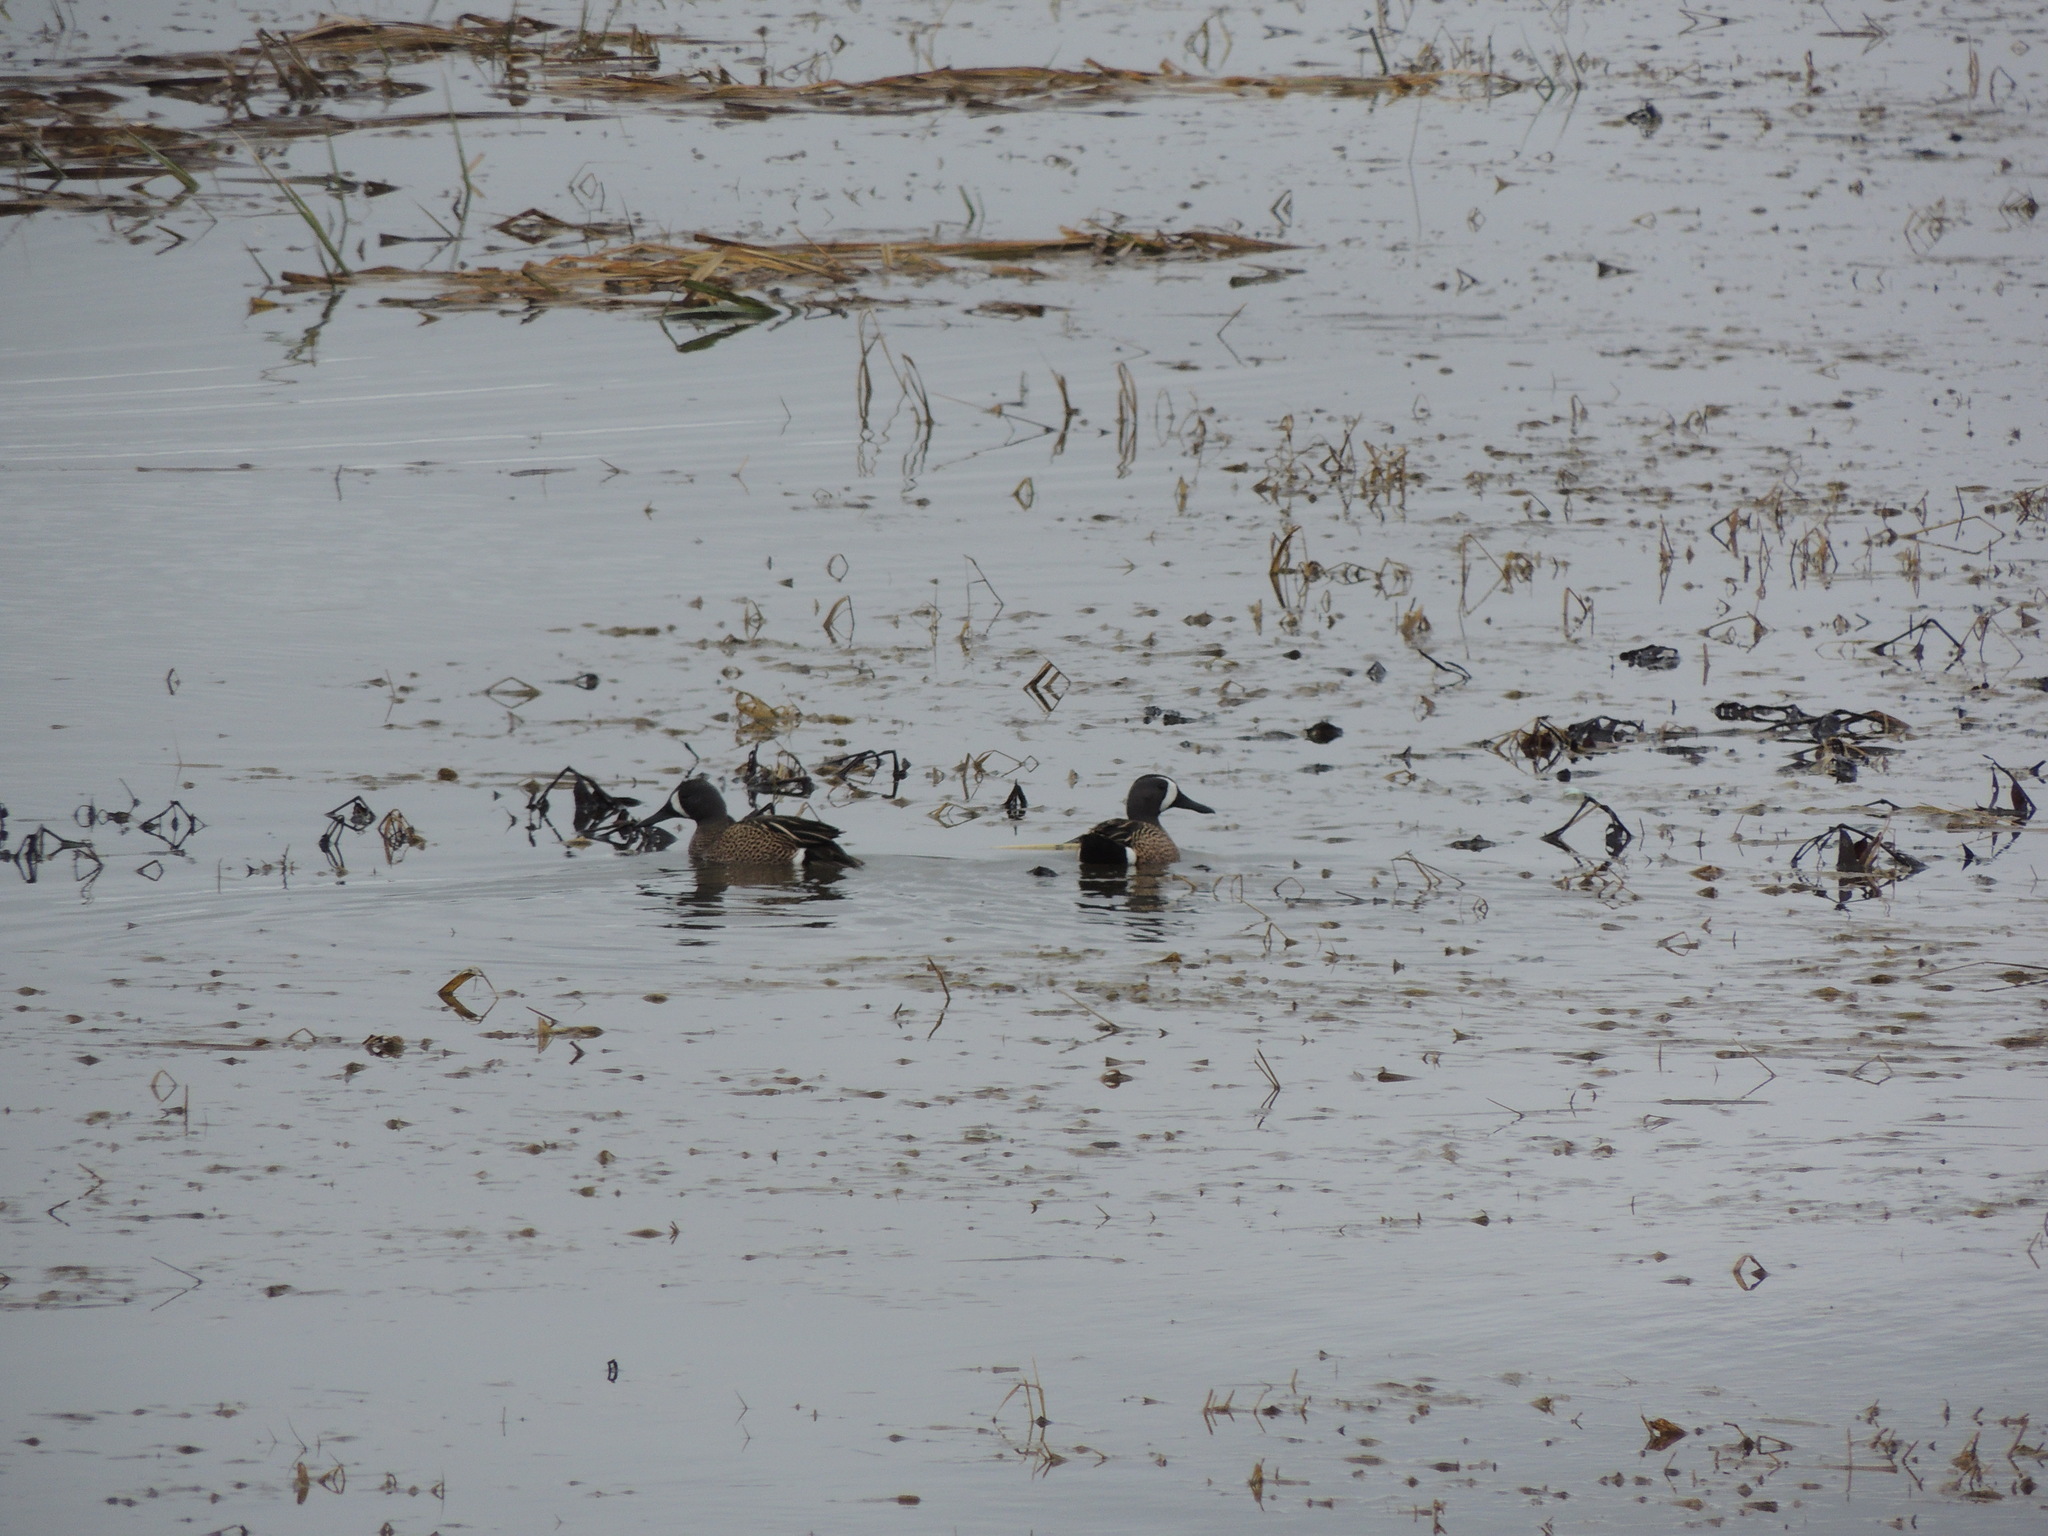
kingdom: Animalia
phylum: Chordata
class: Aves
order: Anseriformes
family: Anatidae
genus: Spatula
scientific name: Spatula discors
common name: Blue-winged teal
